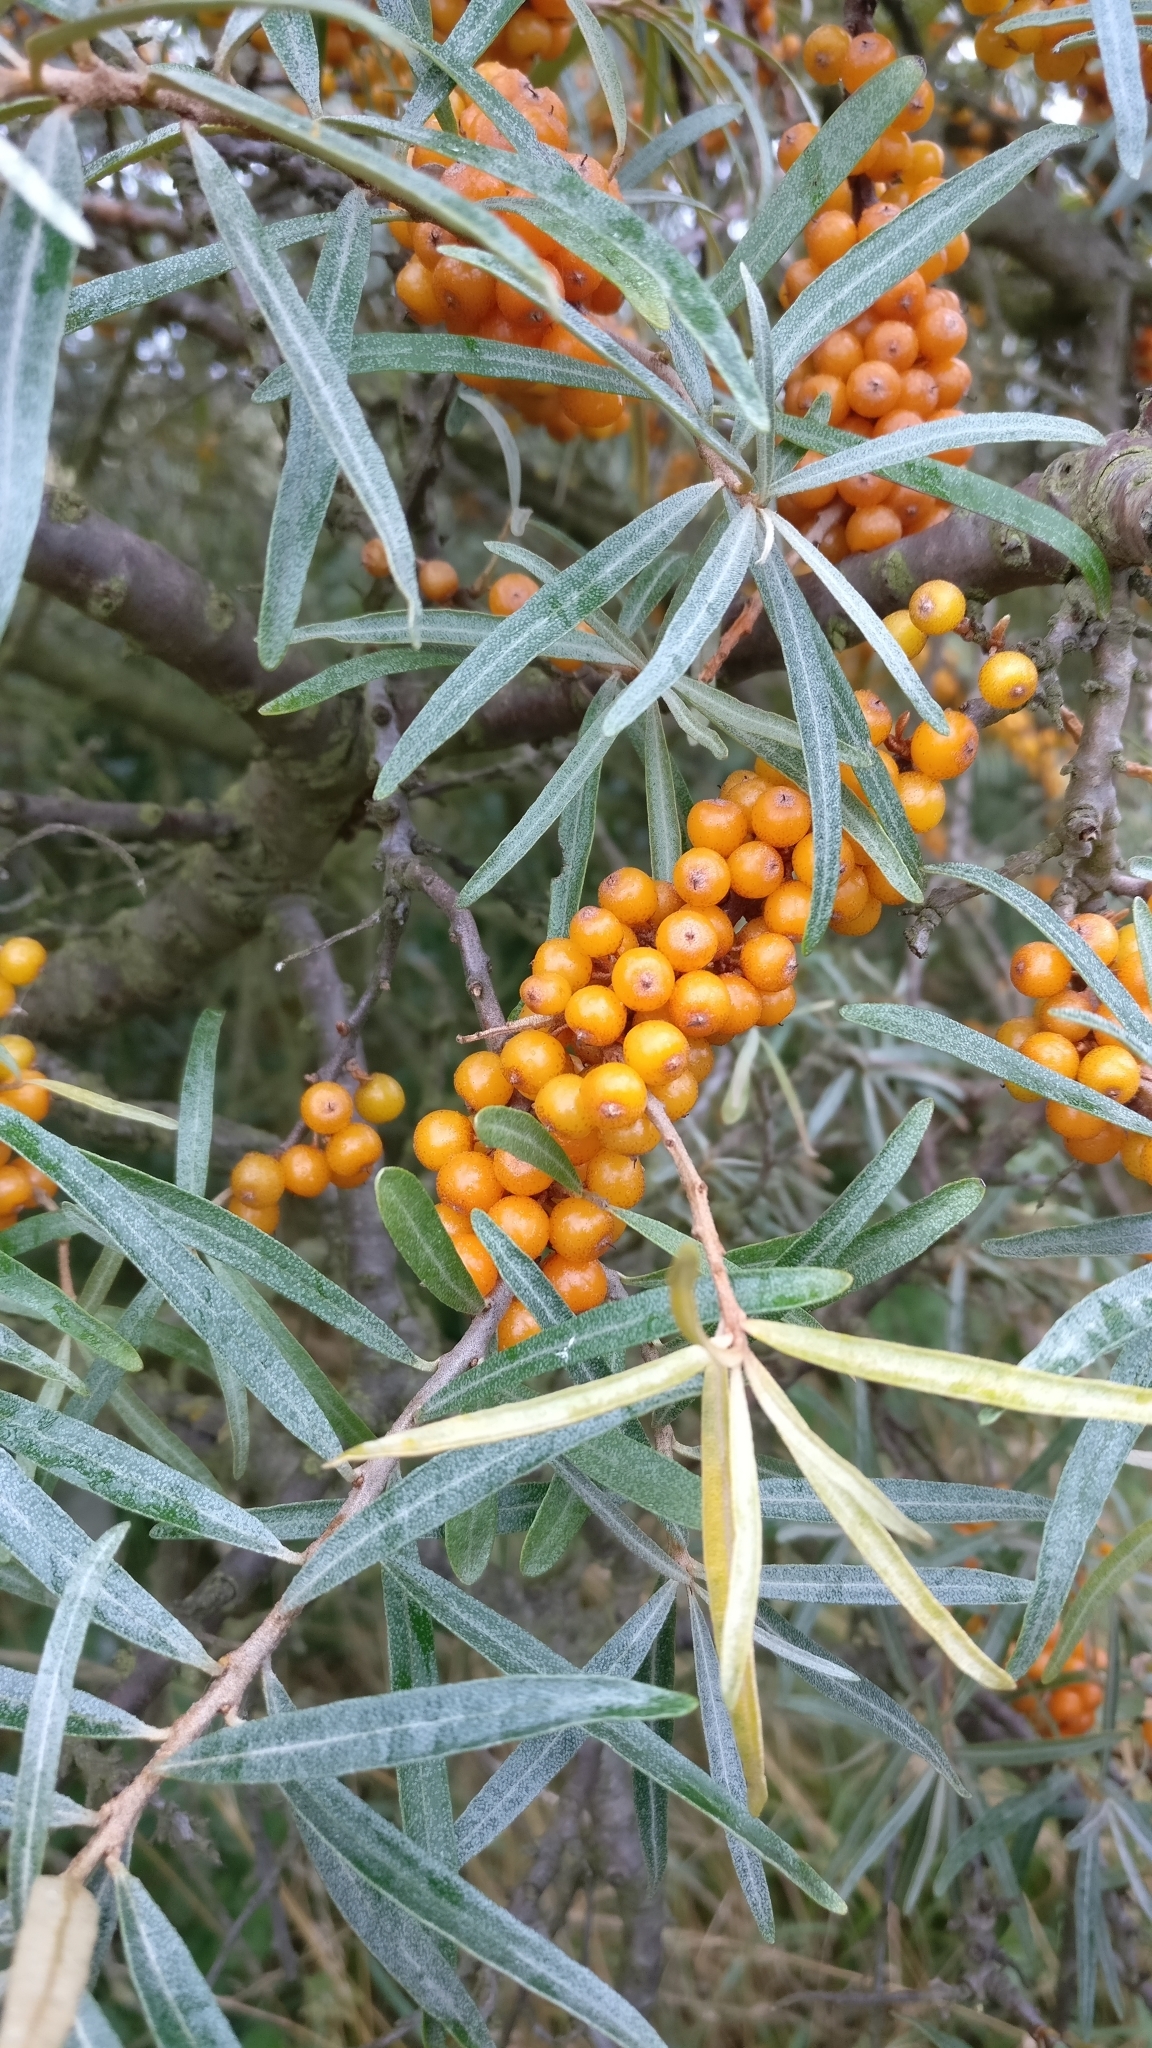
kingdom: Plantae
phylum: Tracheophyta
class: Magnoliopsida
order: Rosales
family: Elaeagnaceae
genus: Hippophae
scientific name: Hippophae rhamnoides
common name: Sea-buckthorn
